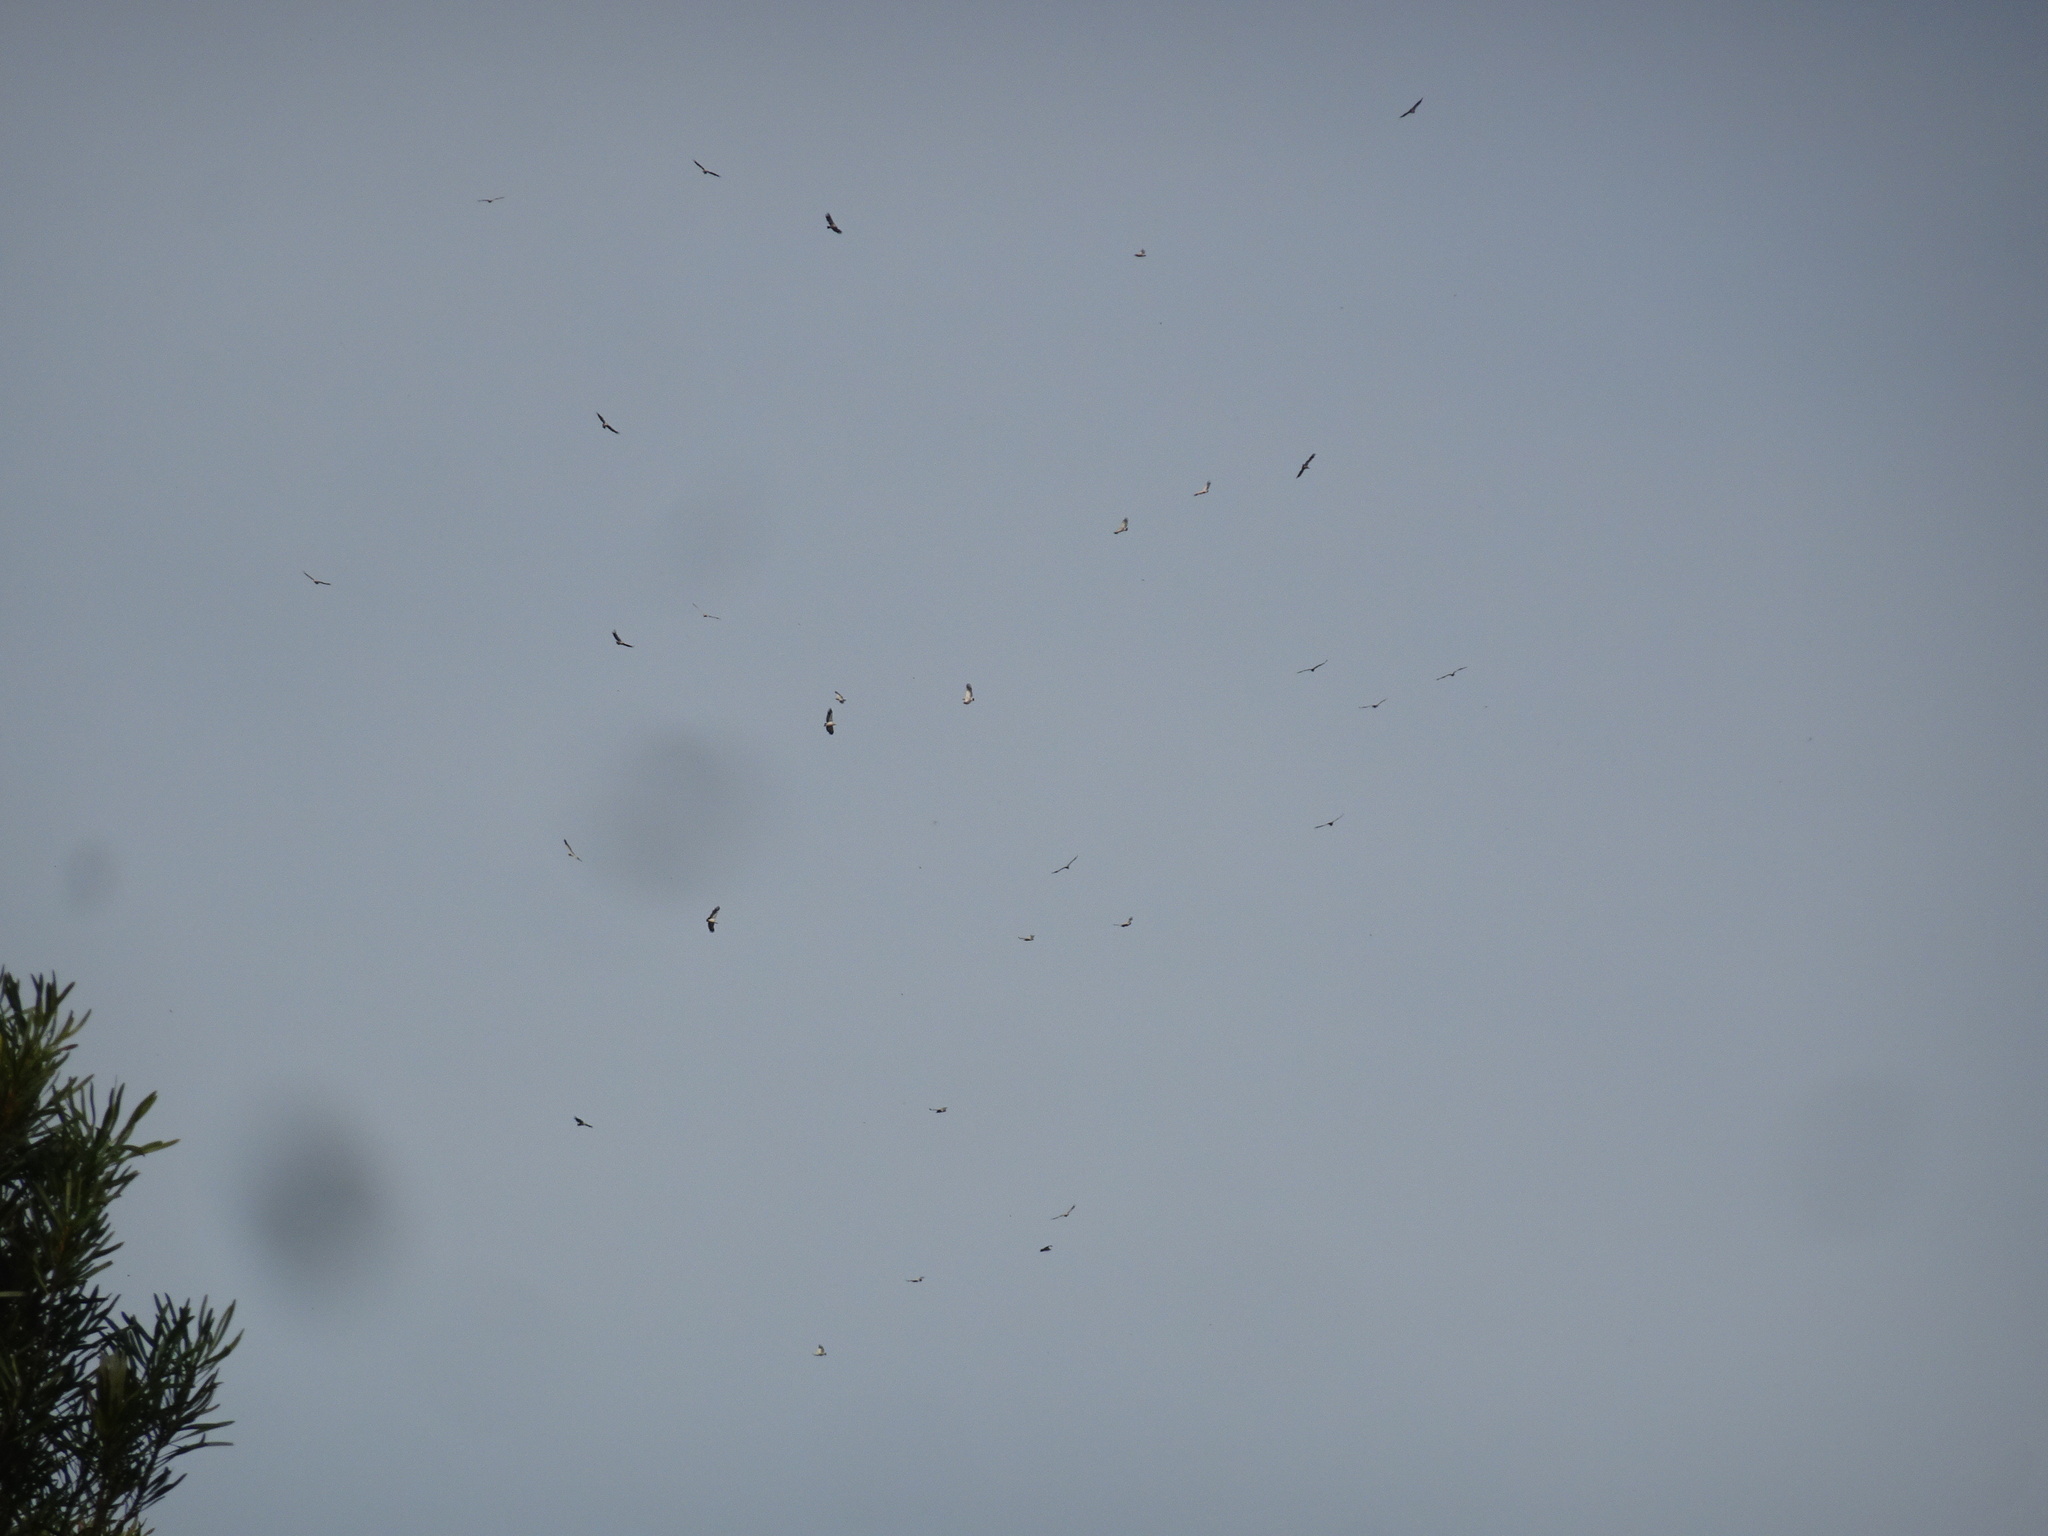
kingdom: Animalia
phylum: Chordata
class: Aves
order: Accipitriformes
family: Accipitridae
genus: Gyps
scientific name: Gyps coprotheres
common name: Cape vulture
